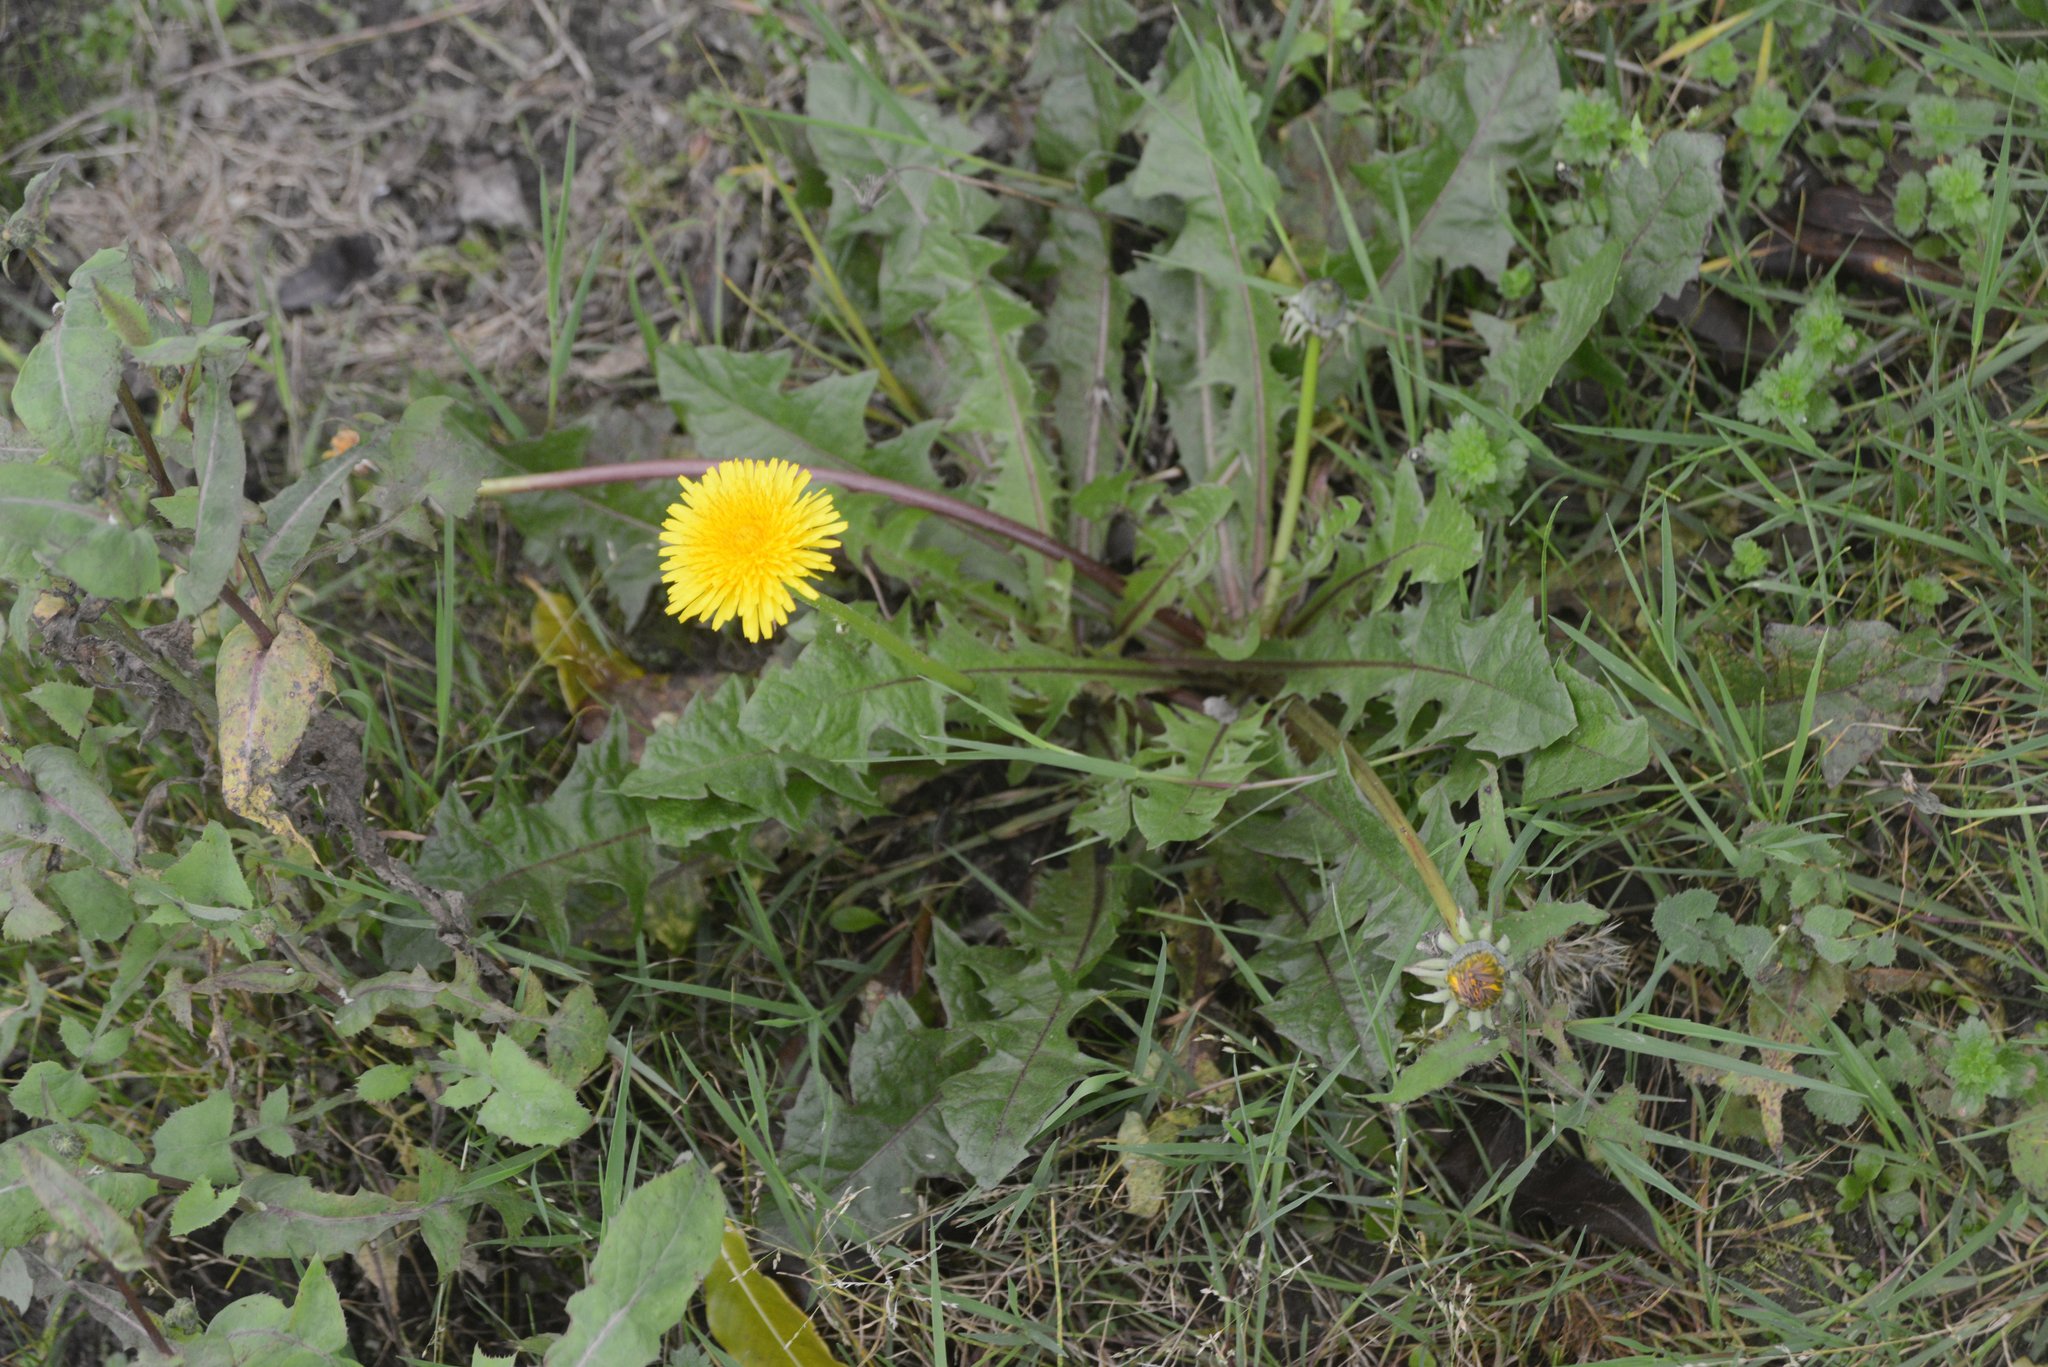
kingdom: Plantae
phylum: Tracheophyta
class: Magnoliopsida
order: Asterales
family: Asteraceae
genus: Taraxacum
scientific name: Taraxacum officinale
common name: Common dandelion
